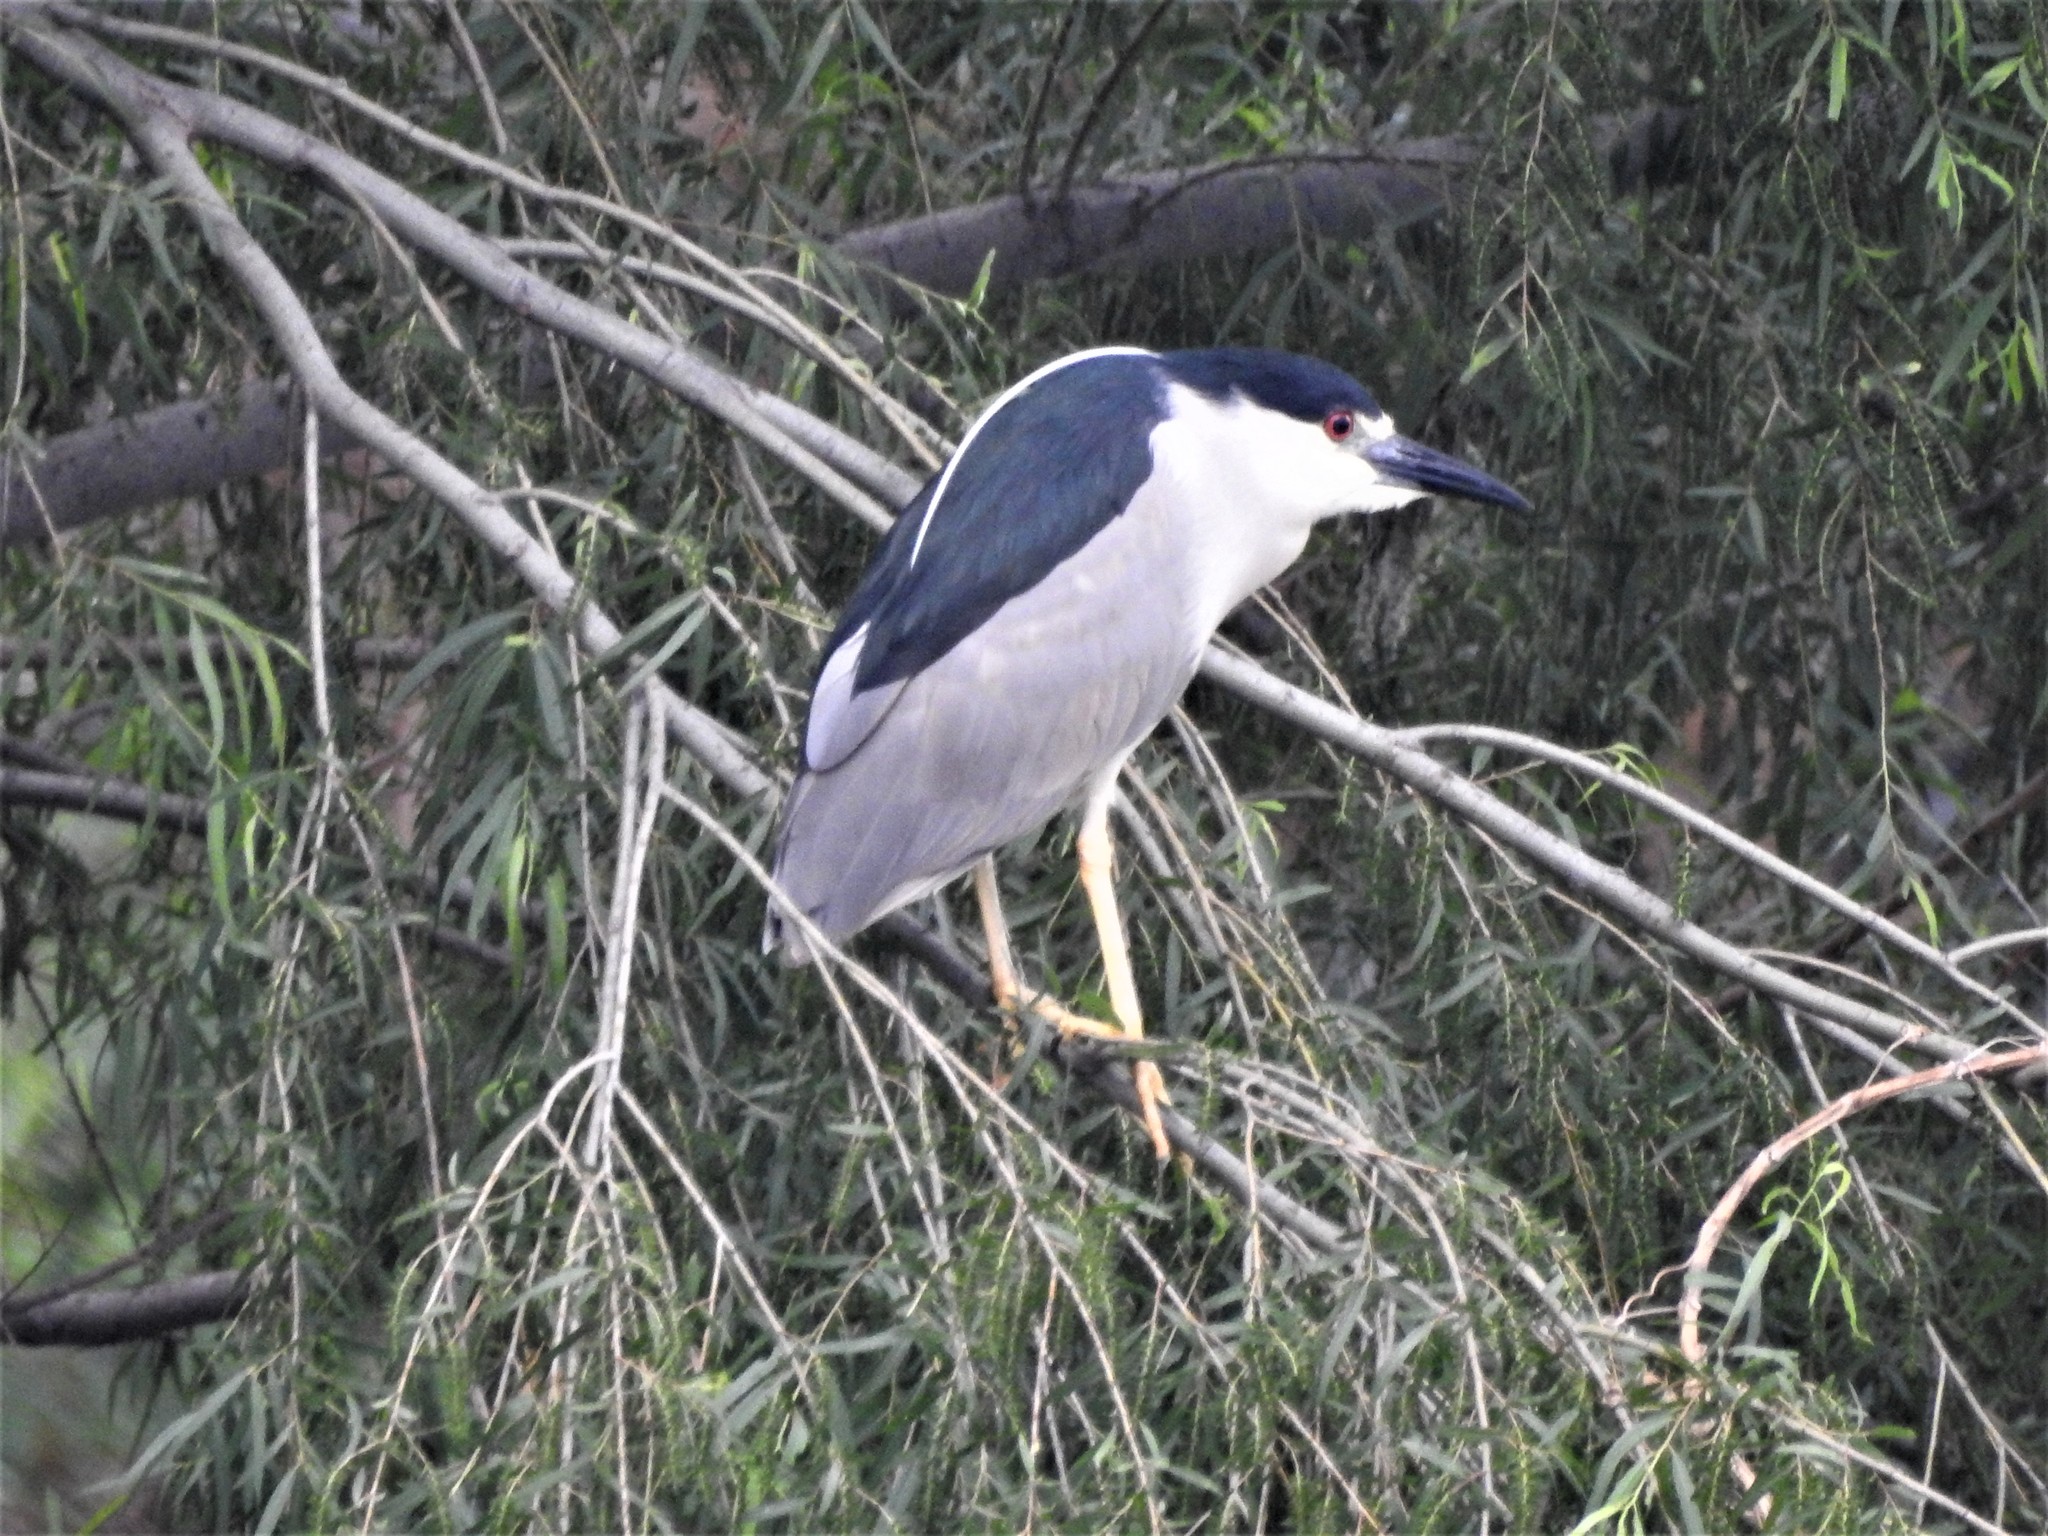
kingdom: Animalia
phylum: Chordata
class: Aves
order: Pelecaniformes
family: Ardeidae
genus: Nycticorax
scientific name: Nycticorax nycticorax
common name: Black-crowned night heron
